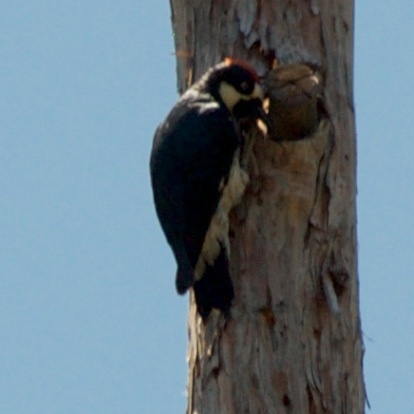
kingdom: Animalia
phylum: Chordata
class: Aves
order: Piciformes
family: Picidae
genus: Melanerpes
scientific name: Melanerpes formicivorus
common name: Acorn woodpecker
